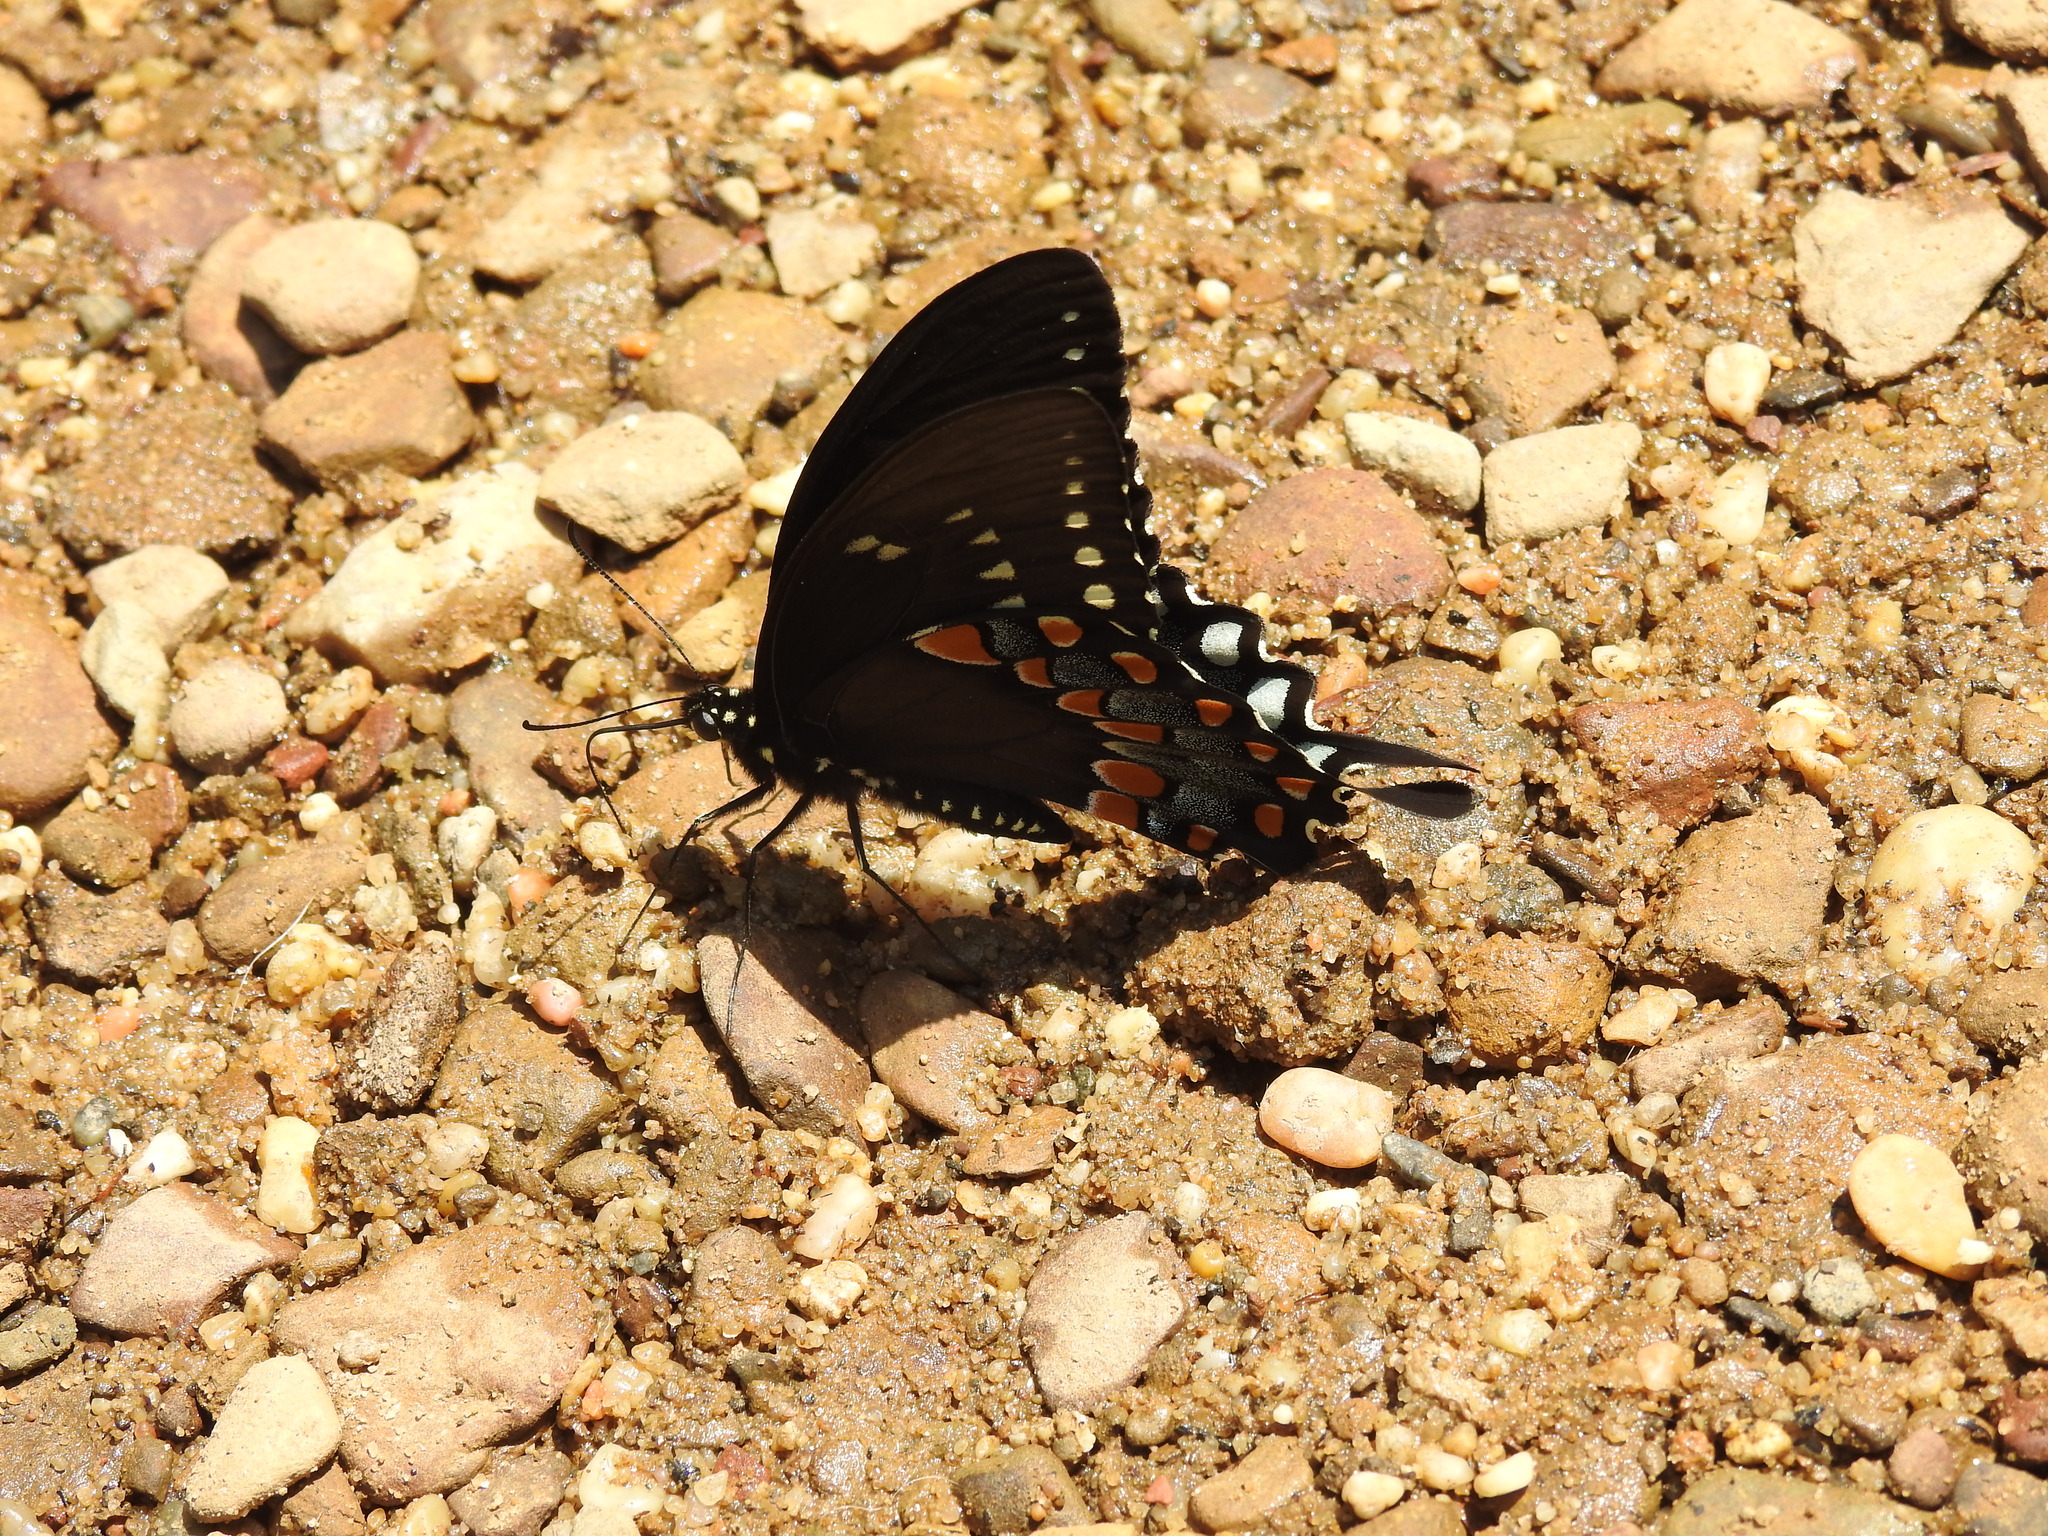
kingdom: Animalia
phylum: Arthropoda
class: Insecta
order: Lepidoptera
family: Papilionidae
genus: Papilio
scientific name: Papilio troilus
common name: Spicebush swallowtail
